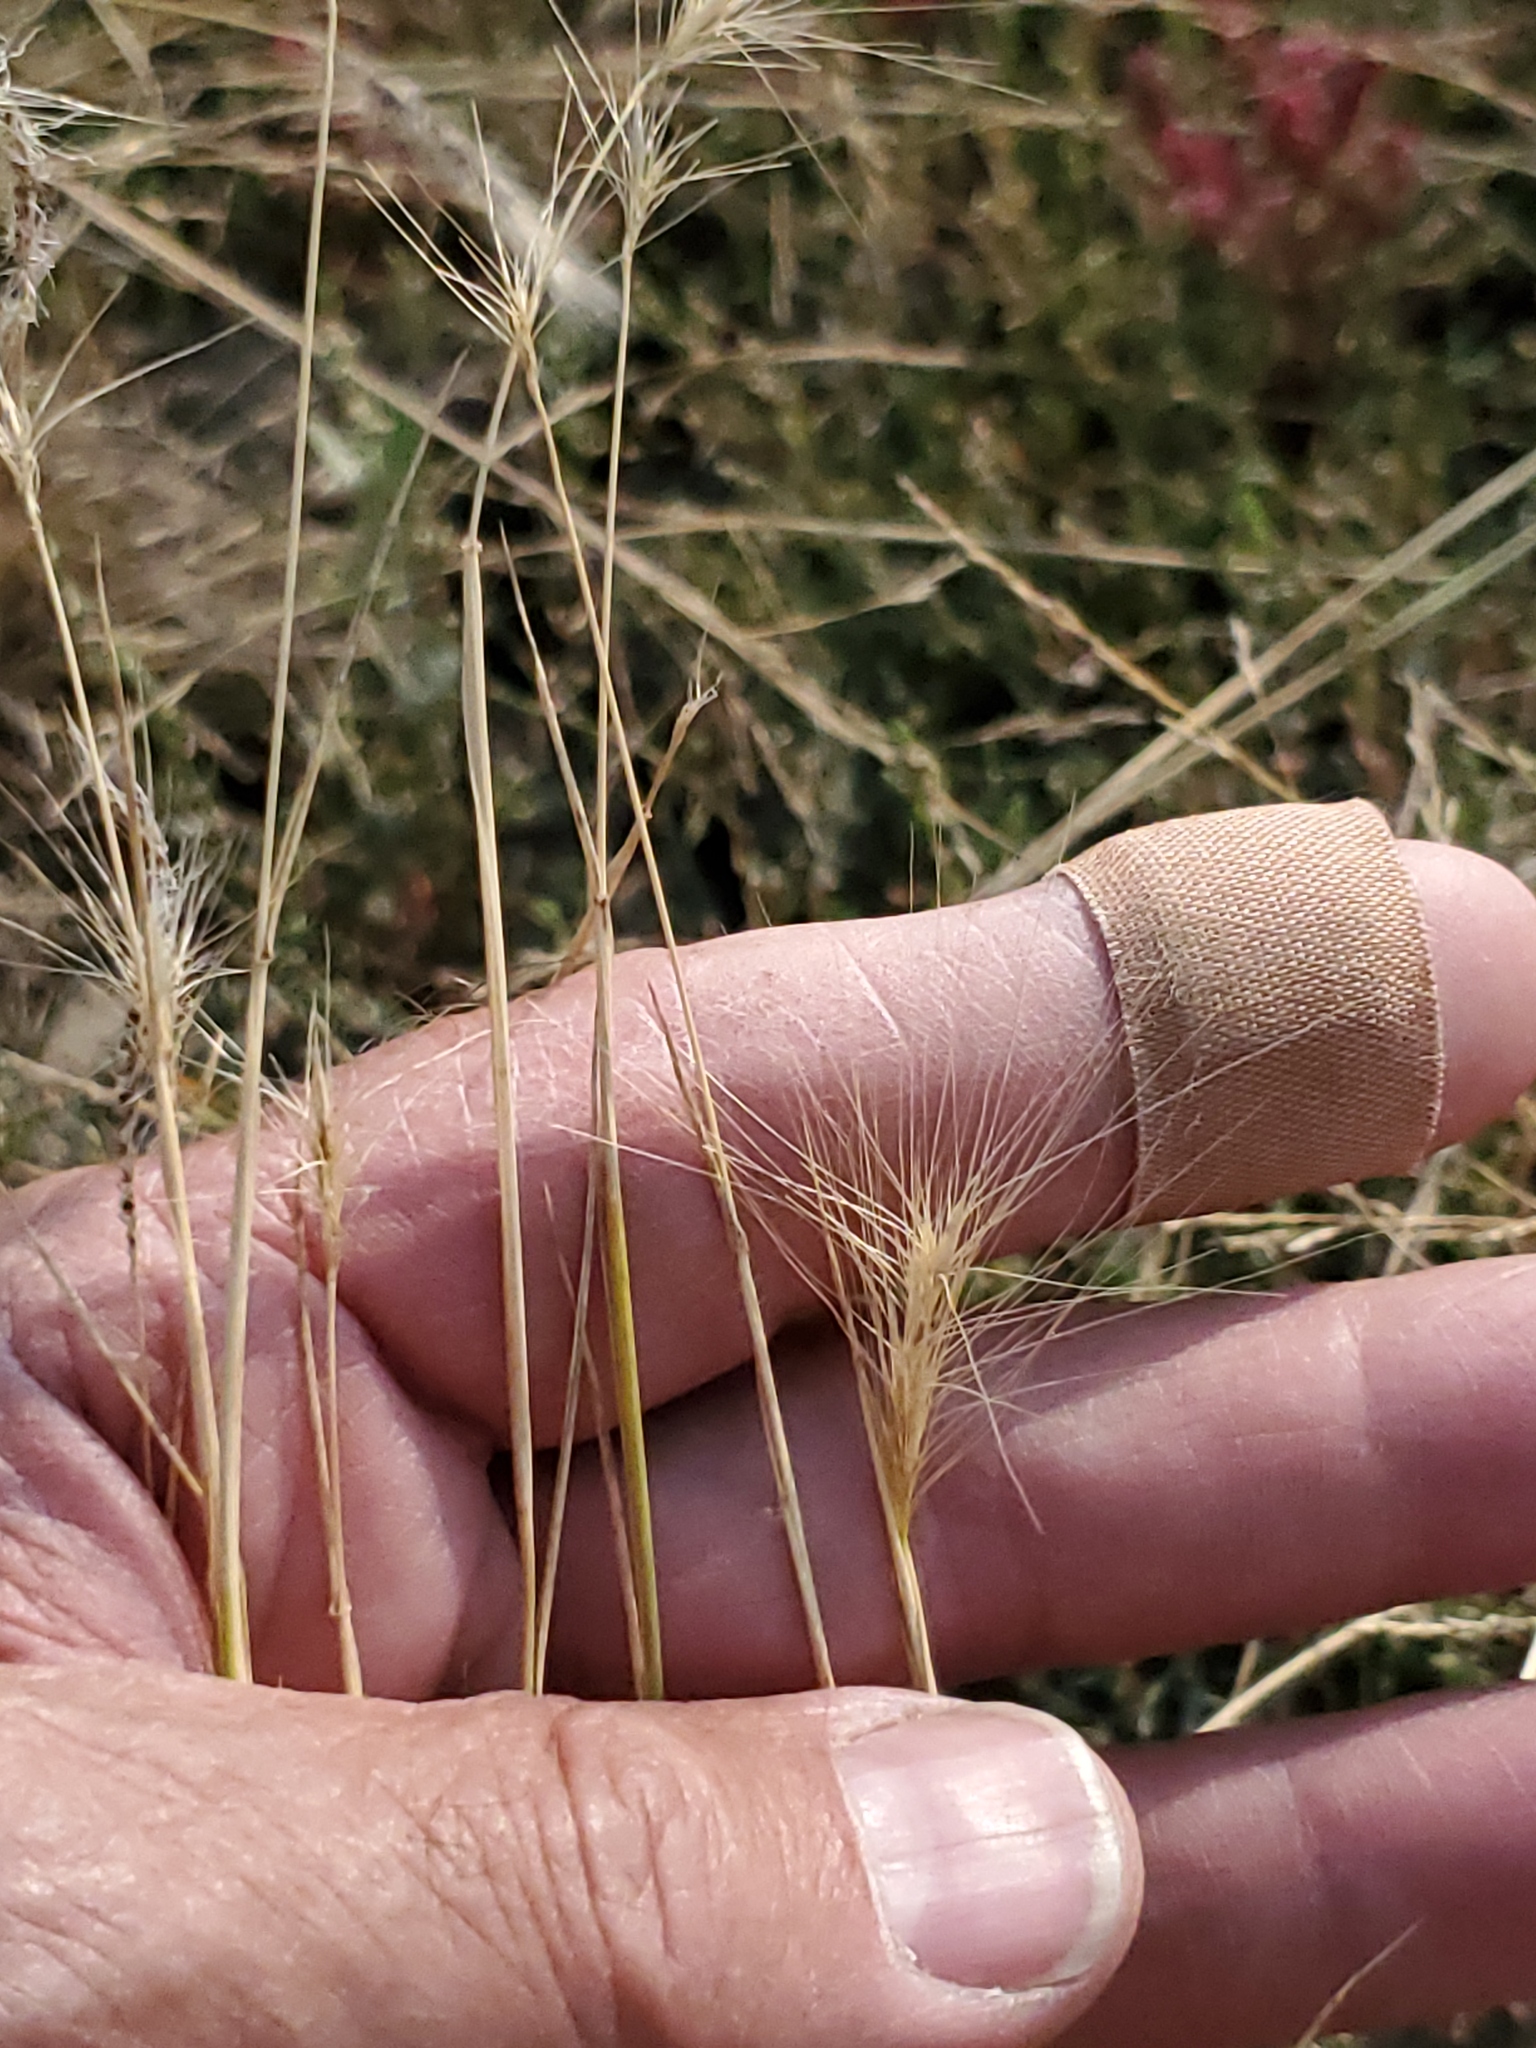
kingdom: Plantae
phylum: Tracheophyta
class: Liliopsida
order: Poales
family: Poaceae
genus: Hordeum
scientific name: Hordeum jubatum
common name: Foxtail barley
